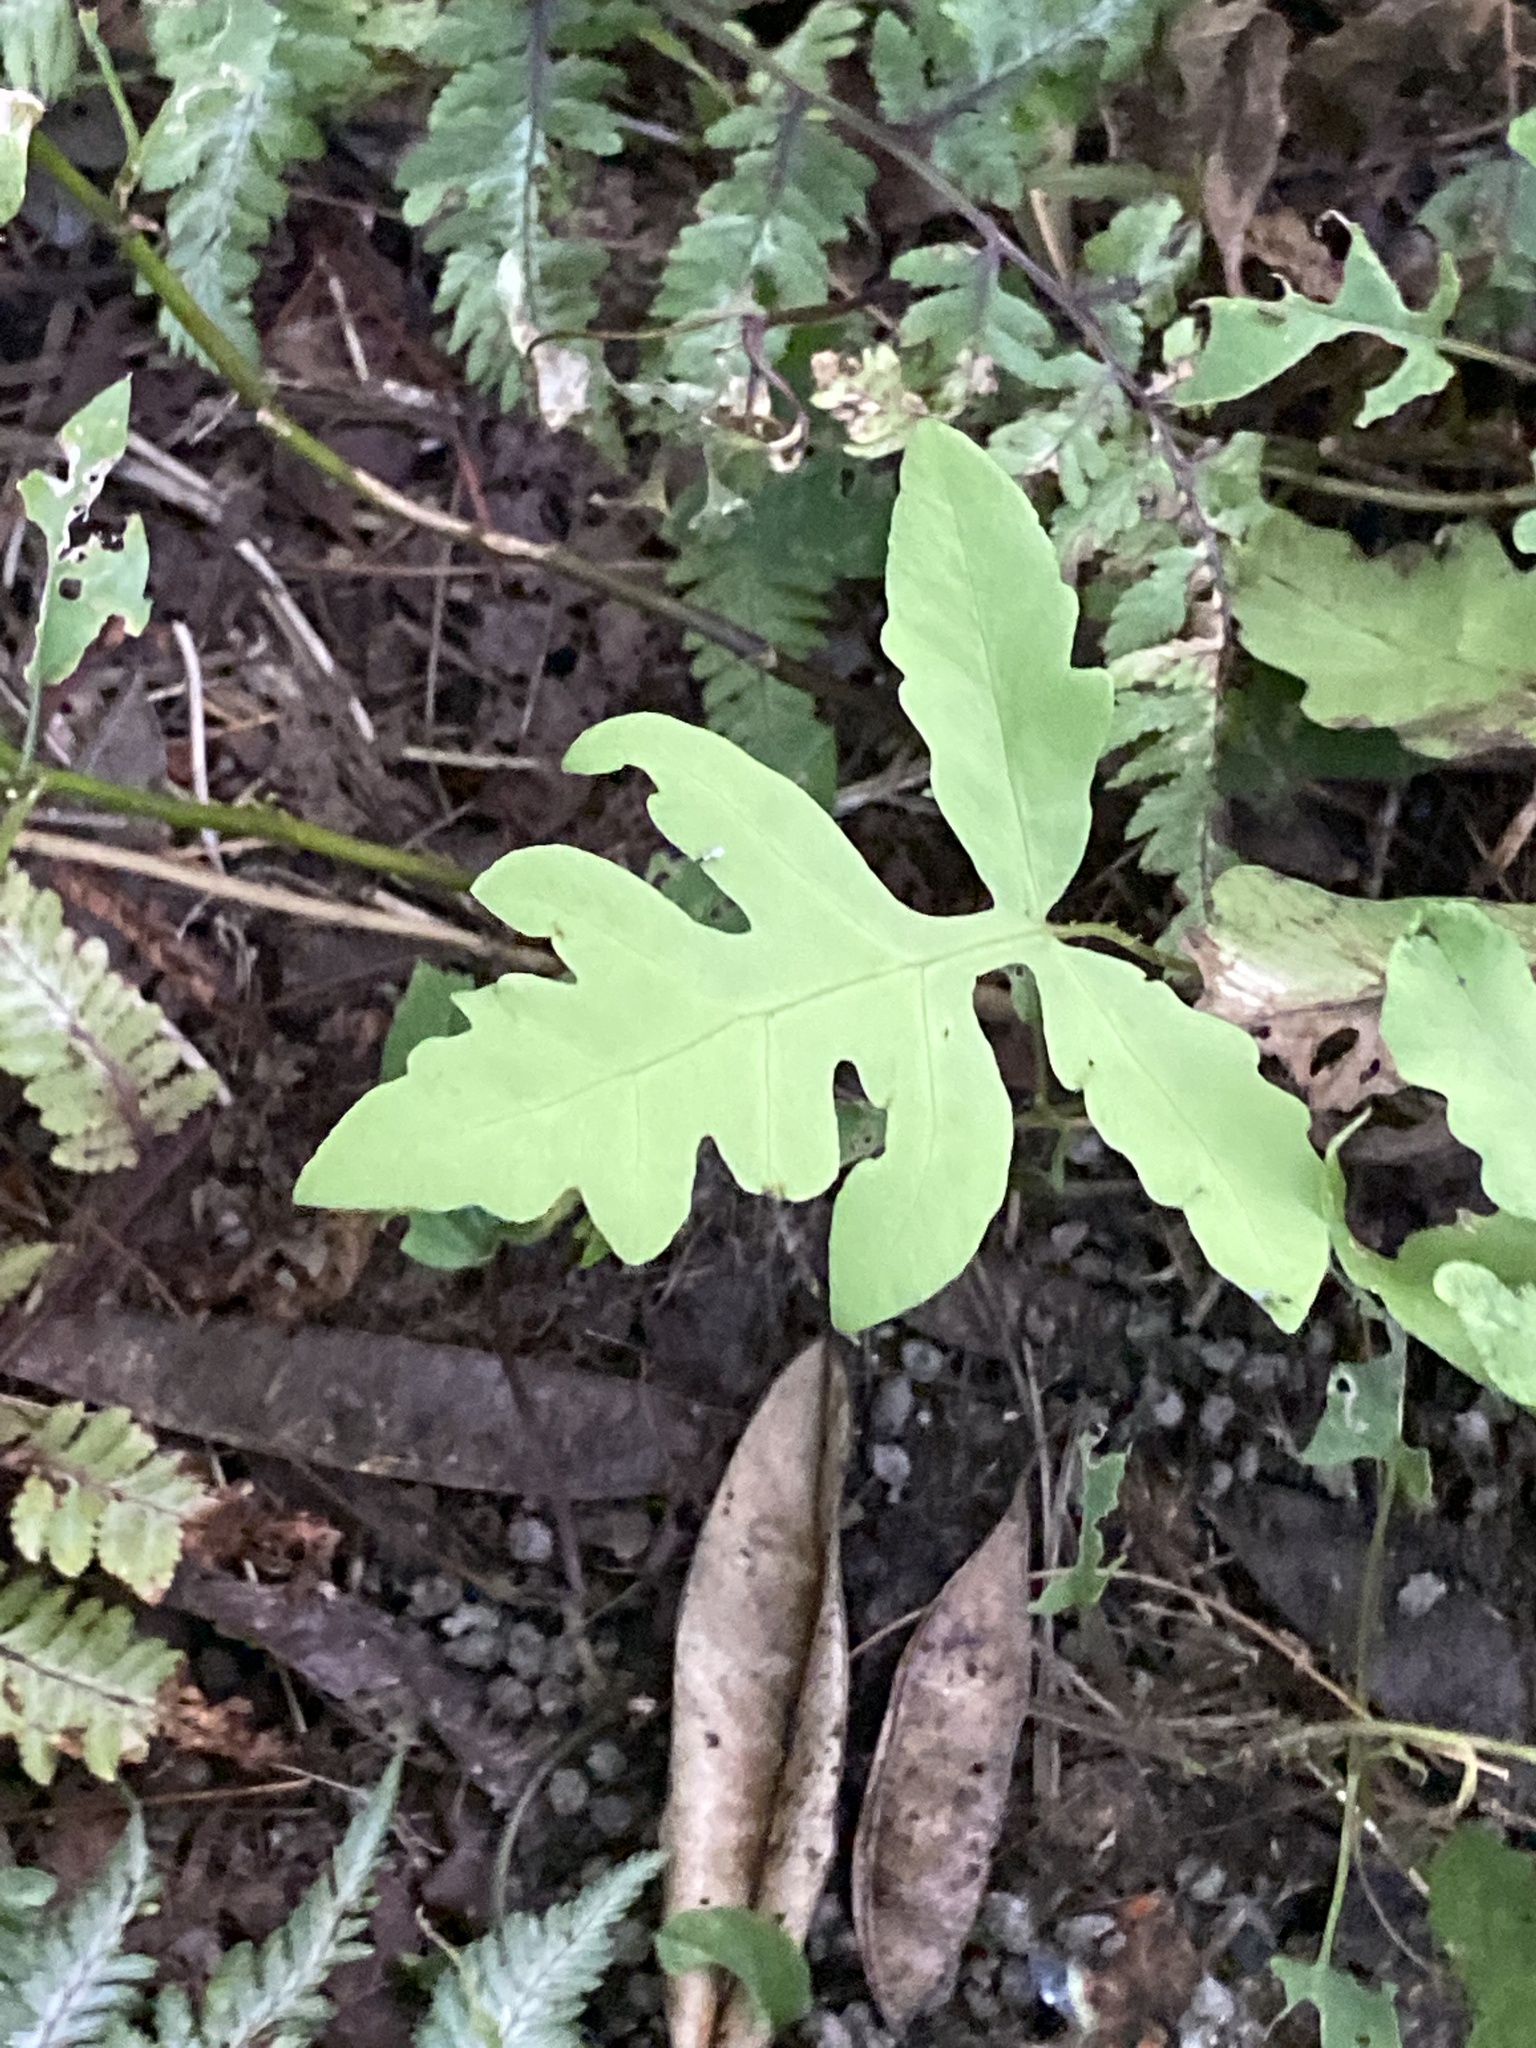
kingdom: Plantae
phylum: Tracheophyta
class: Polypodiopsida
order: Polypodiales
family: Onocleaceae
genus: Onoclea
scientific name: Onoclea sensibilis
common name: Sensitive fern
